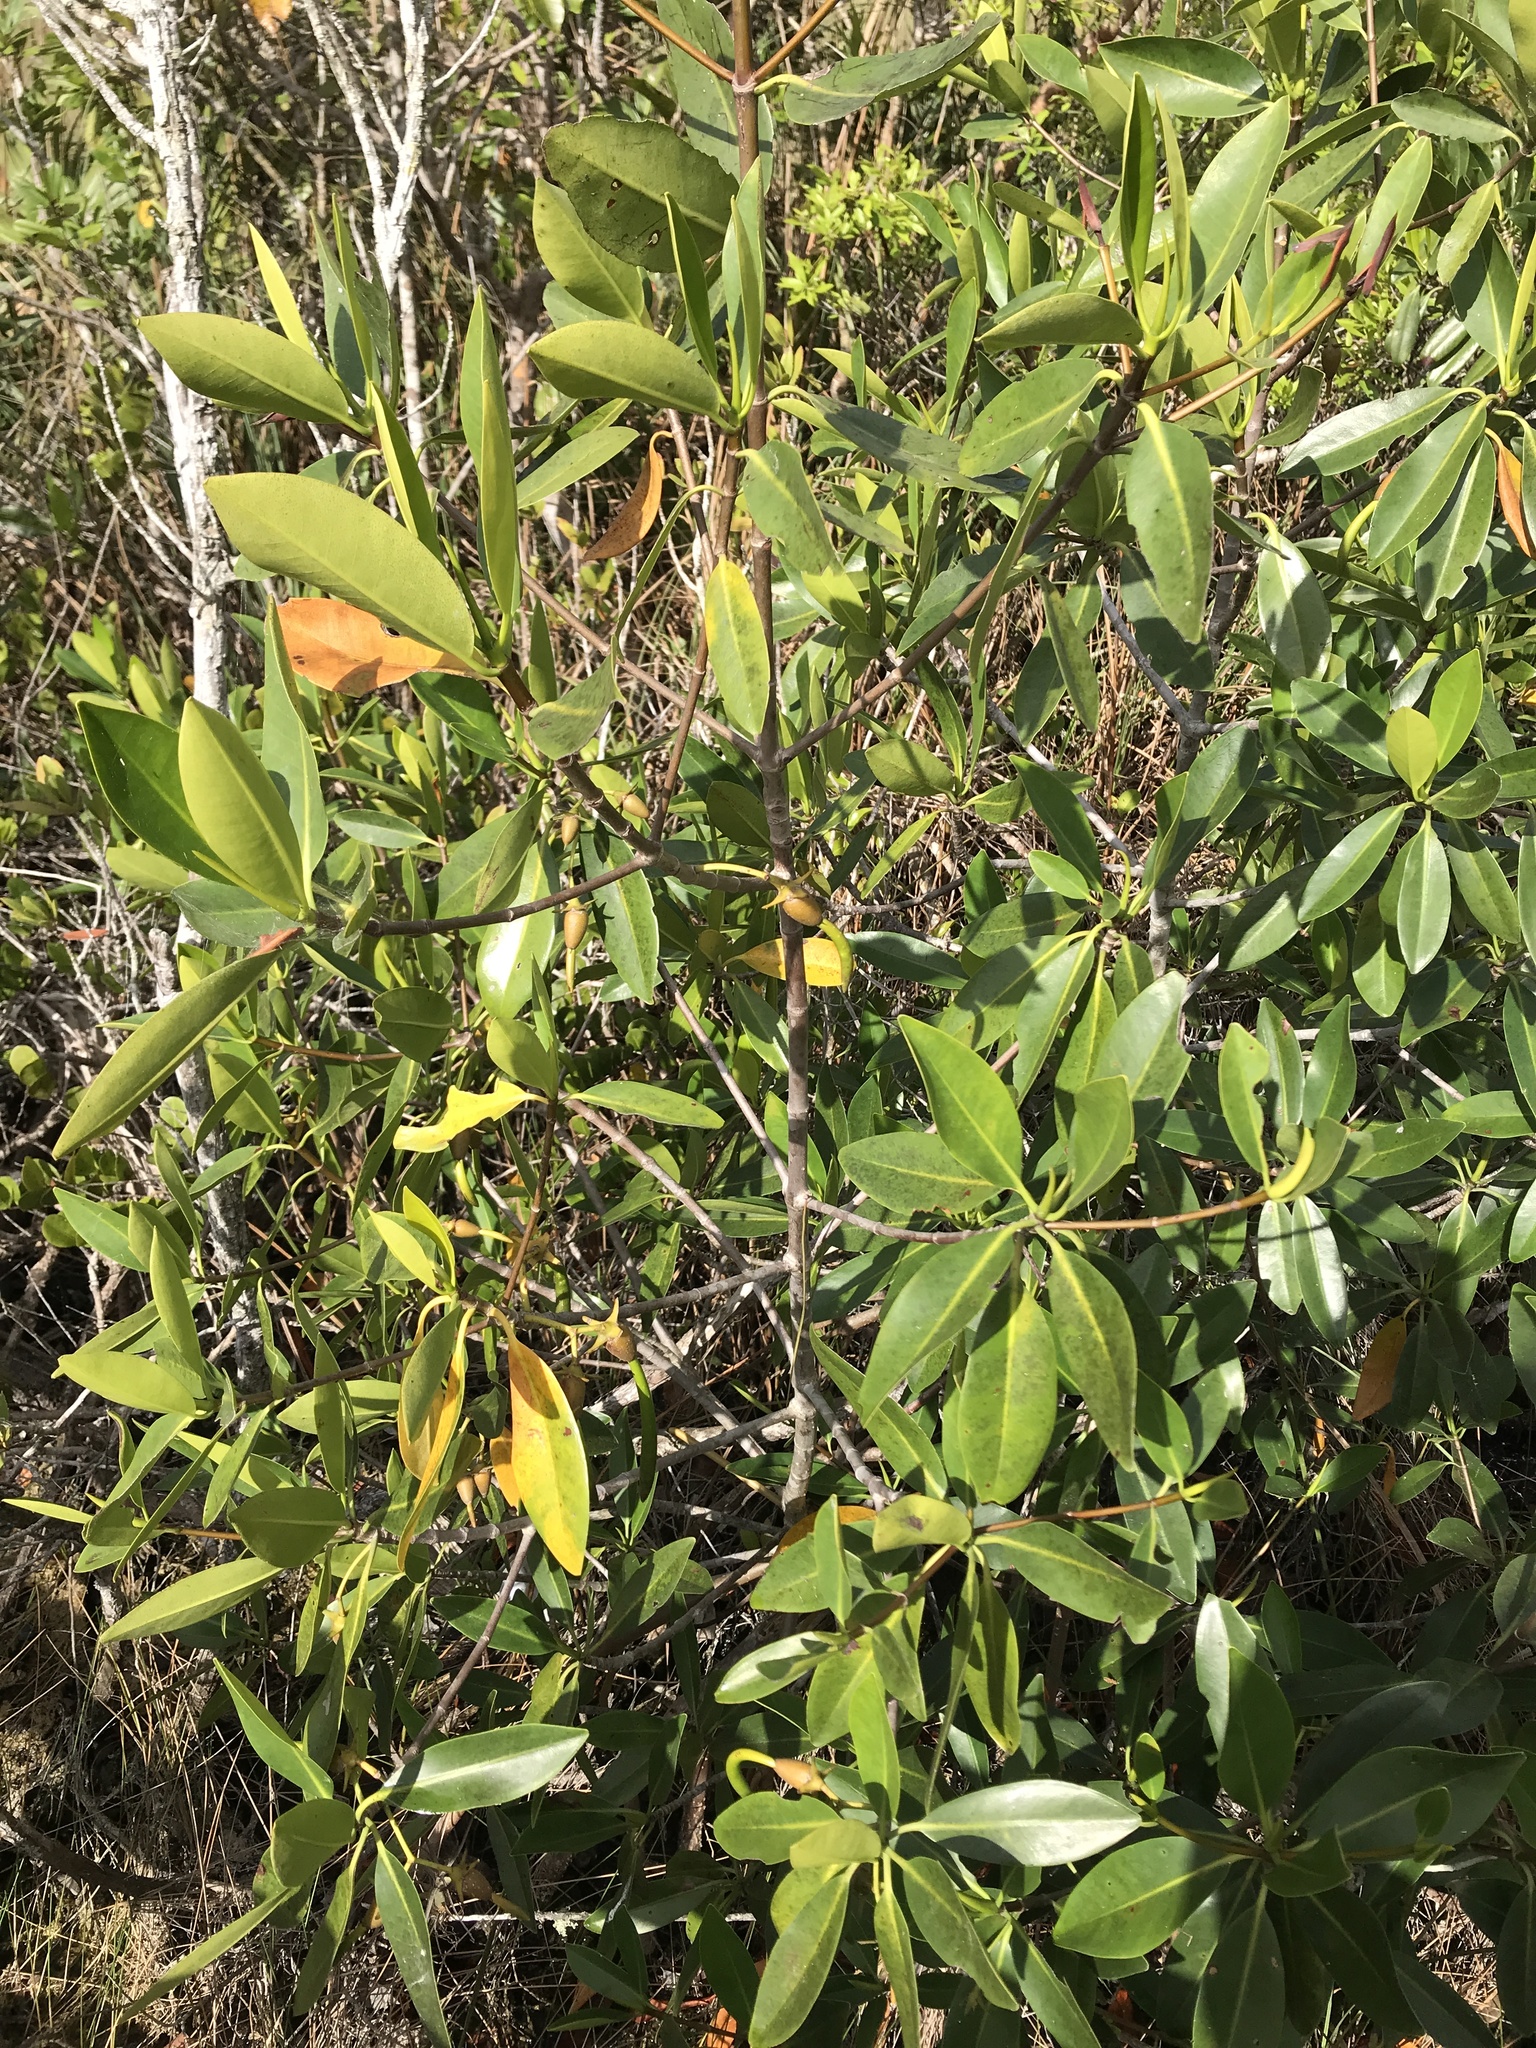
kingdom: Plantae
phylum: Tracheophyta
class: Magnoliopsida
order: Malpighiales
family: Rhizophoraceae
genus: Rhizophora
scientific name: Rhizophora mangle
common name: Red mangrove
